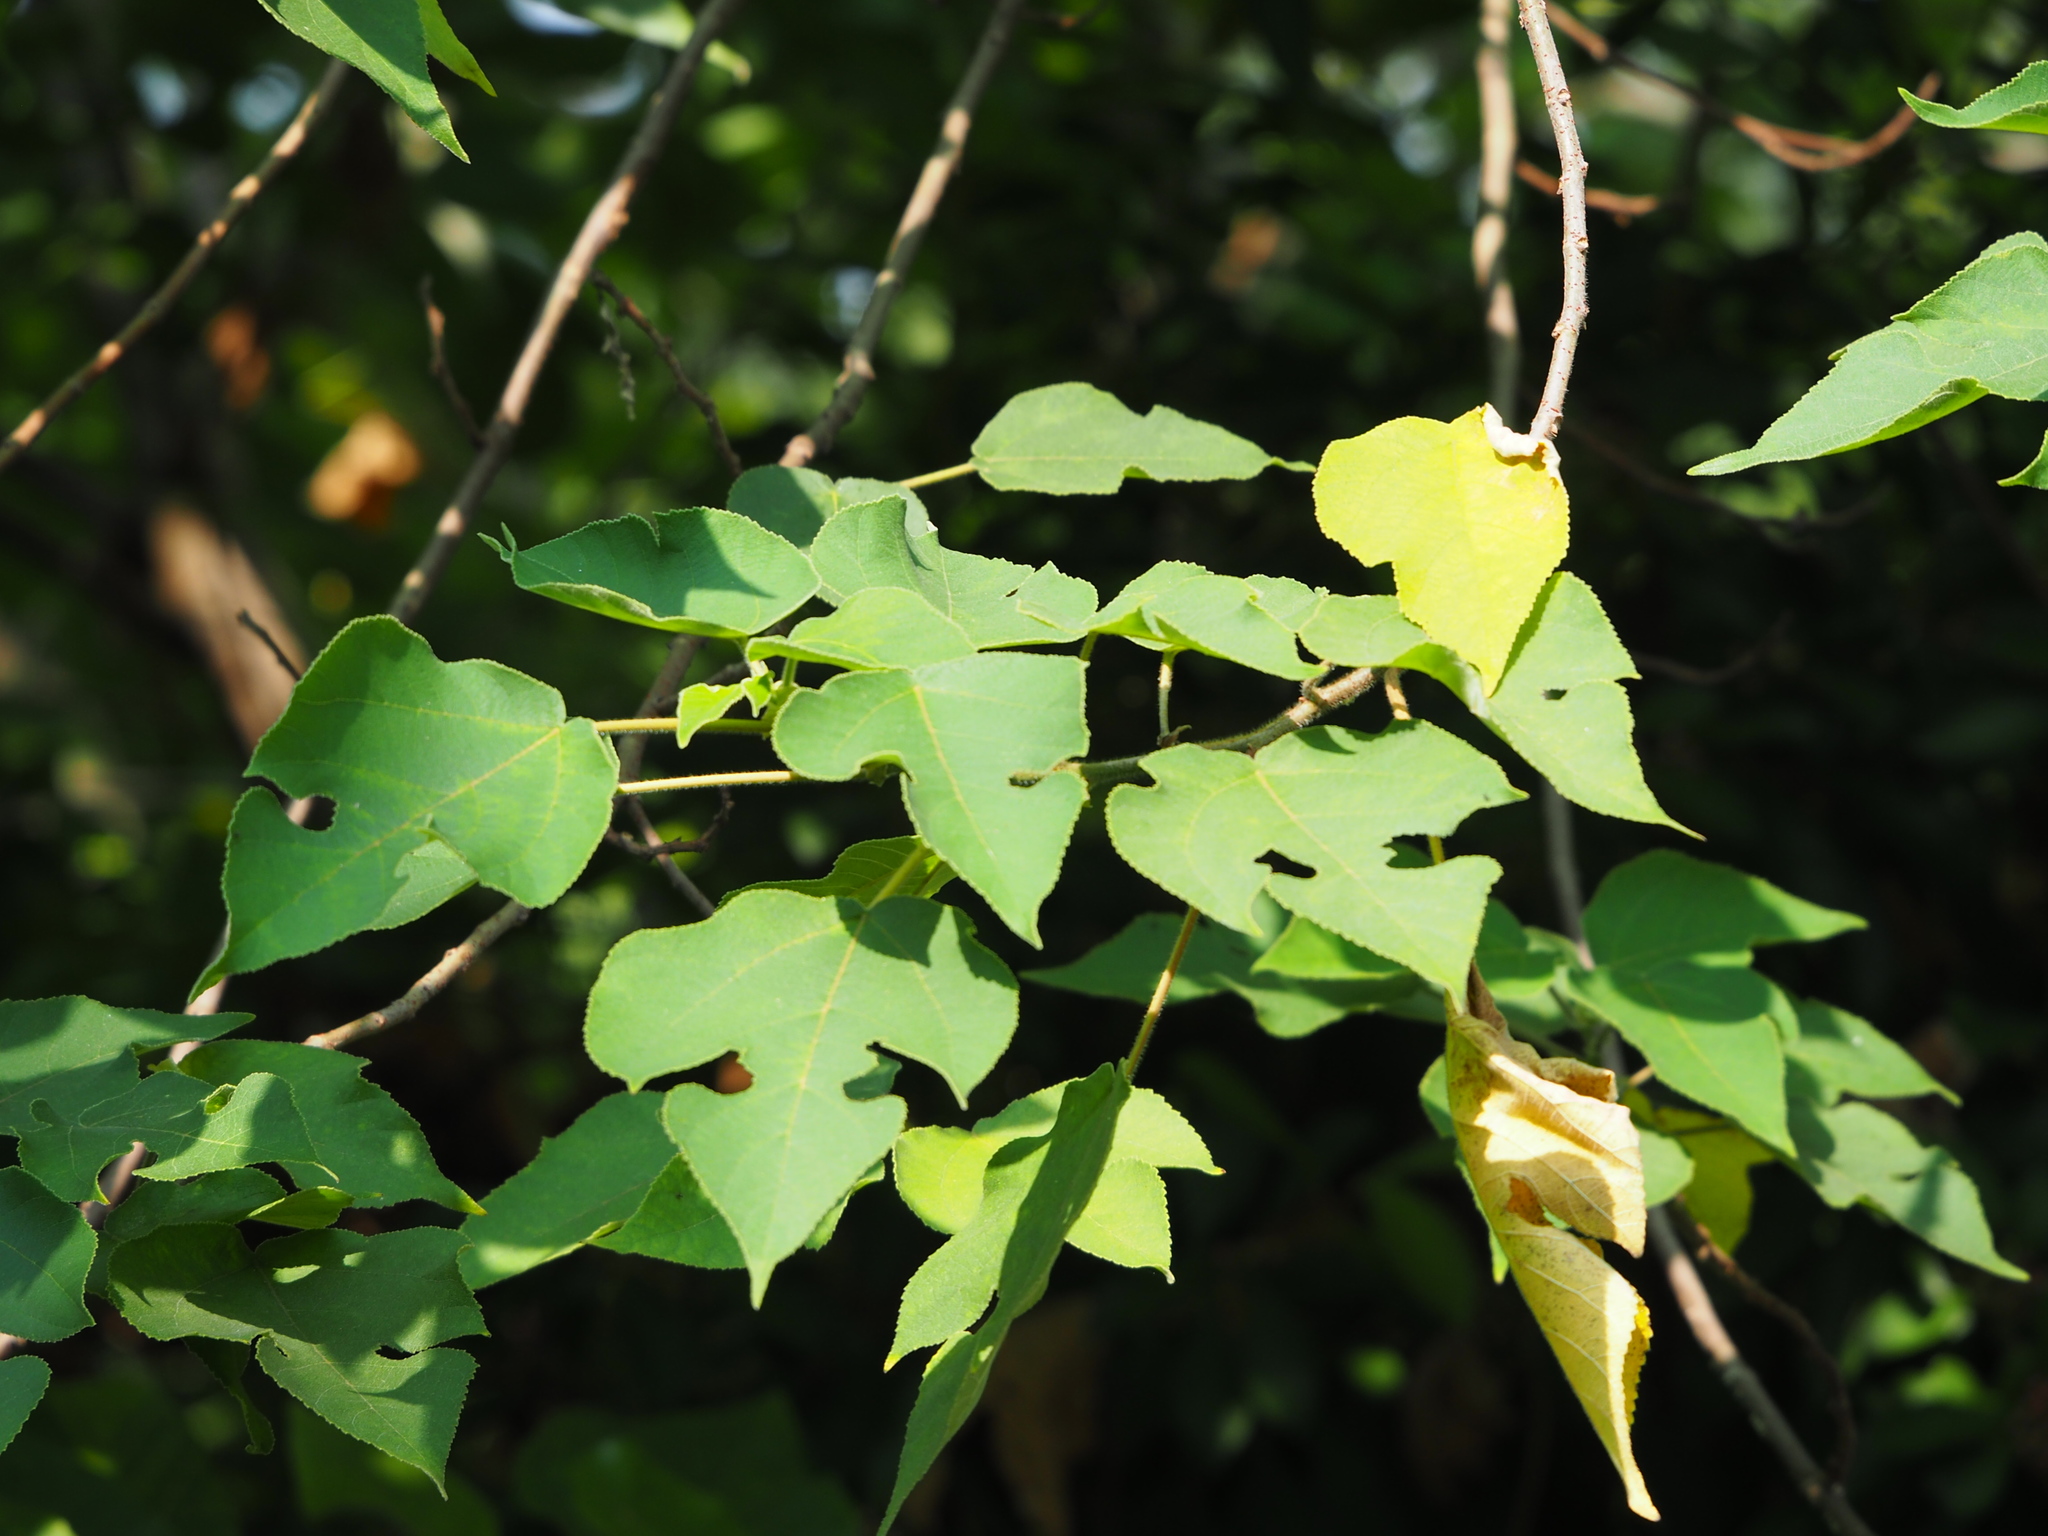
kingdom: Plantae
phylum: Tracheophyta
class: Magnoliopsida
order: Rosales
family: Moraceae
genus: Broussonetia
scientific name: Broussonetia papyrifera
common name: Paper mulberry
